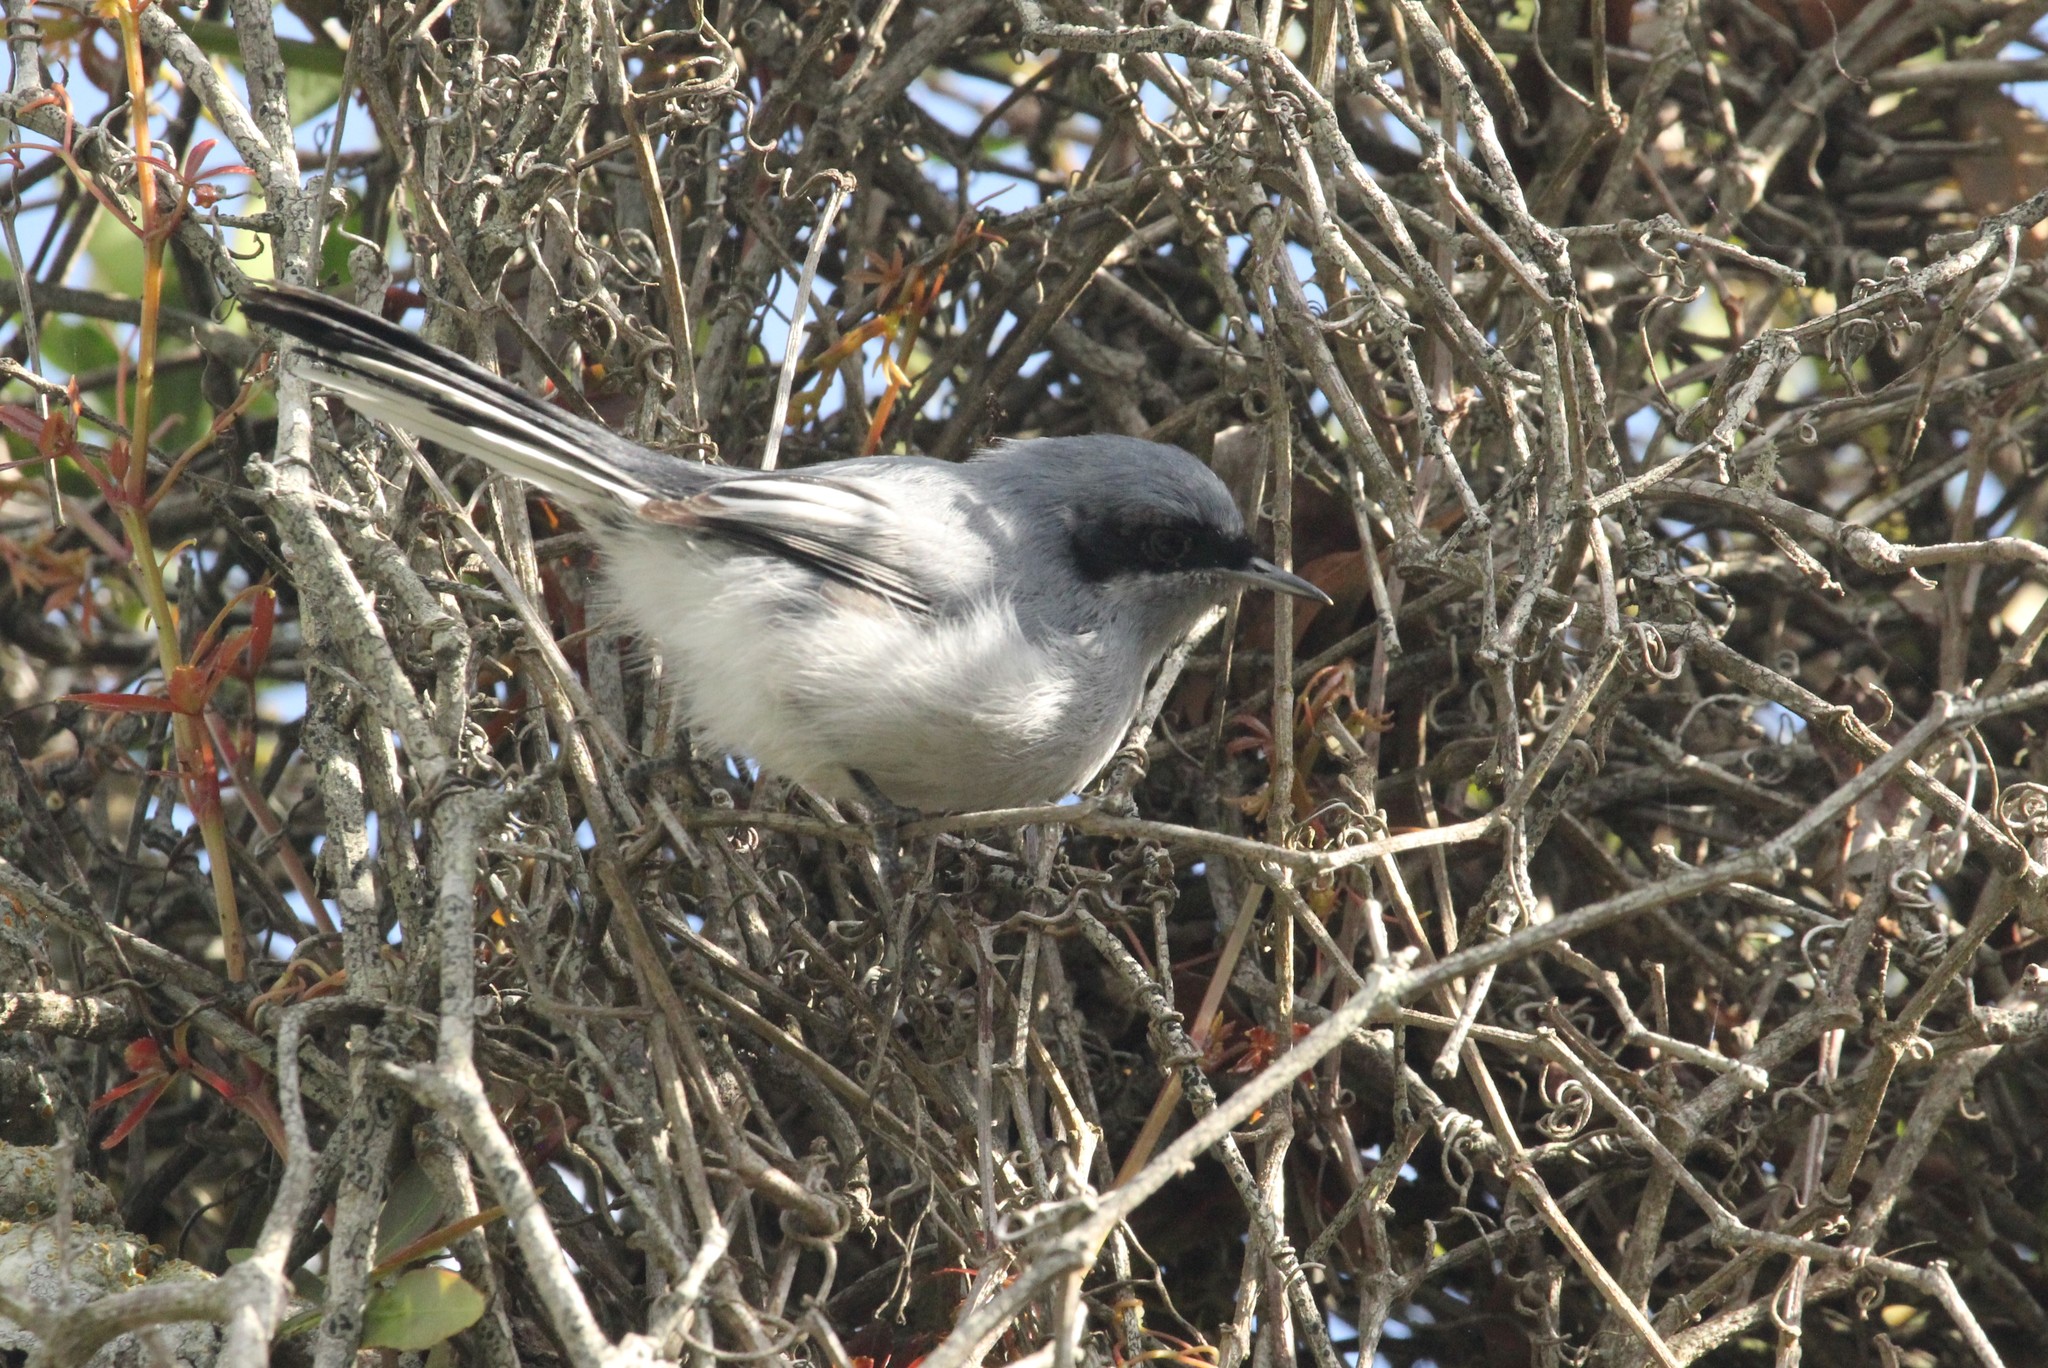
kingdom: Animalia
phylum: Chordata
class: Aves
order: Passeriformes
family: Polioptilidae
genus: Polioptila
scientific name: Polioptila dumicola
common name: Masked gnatcatcher
